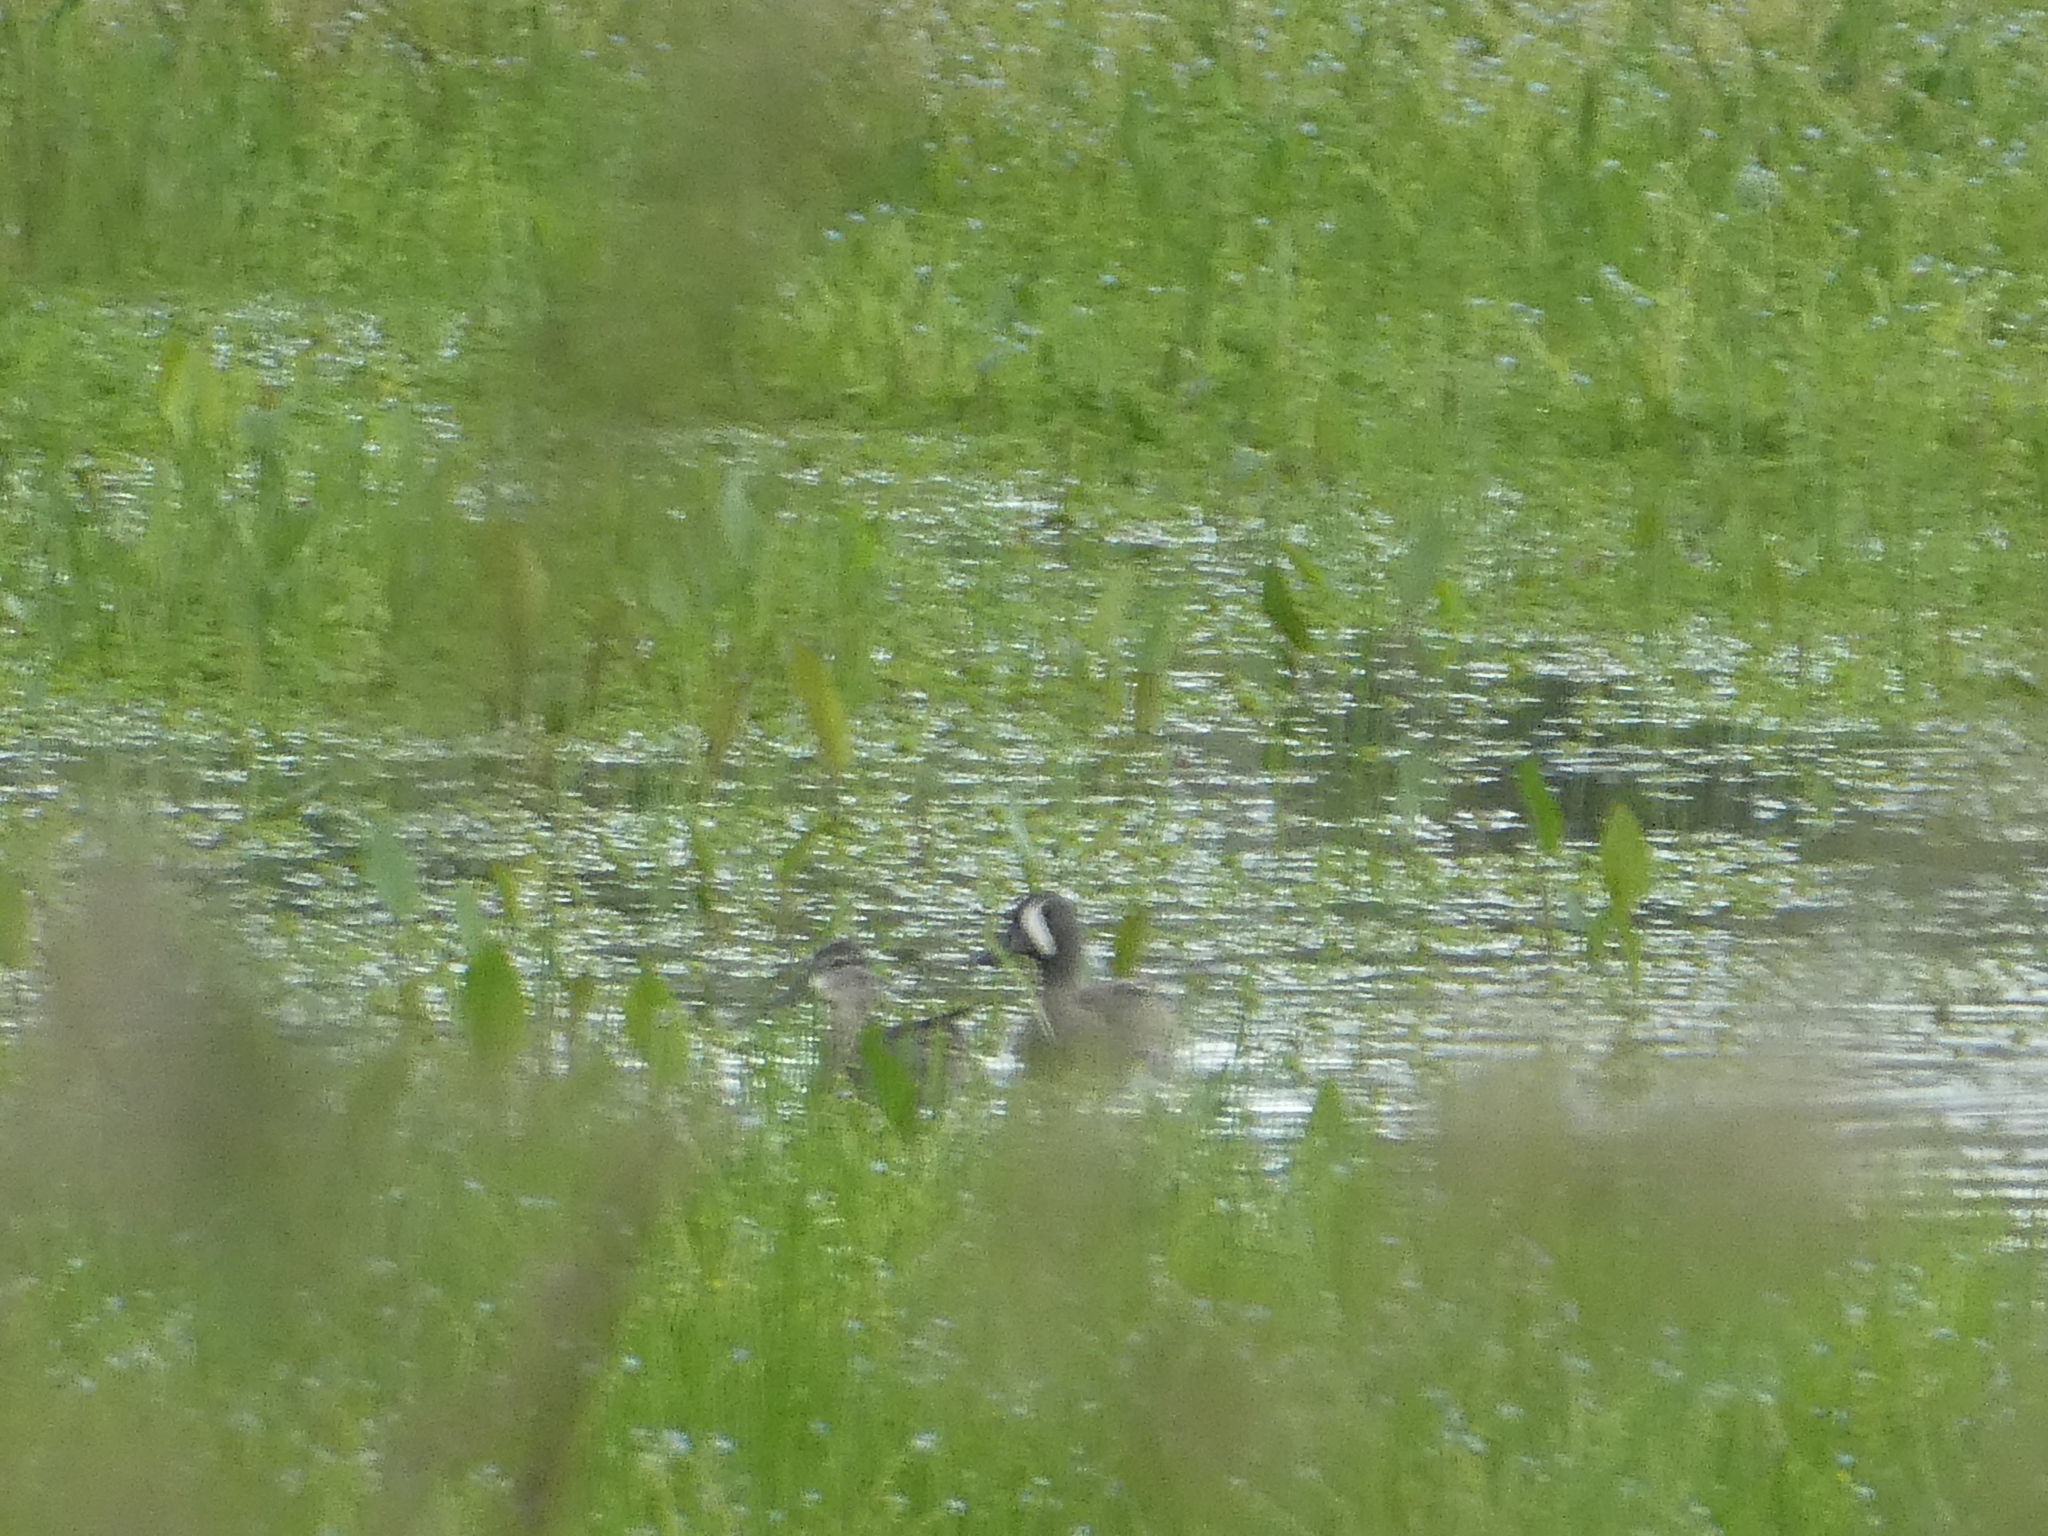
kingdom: Animalia
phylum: Chordata
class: Aves
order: Anseriformes
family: Anatidae
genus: Spatula
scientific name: Spatula discors
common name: Blue-winged teal
